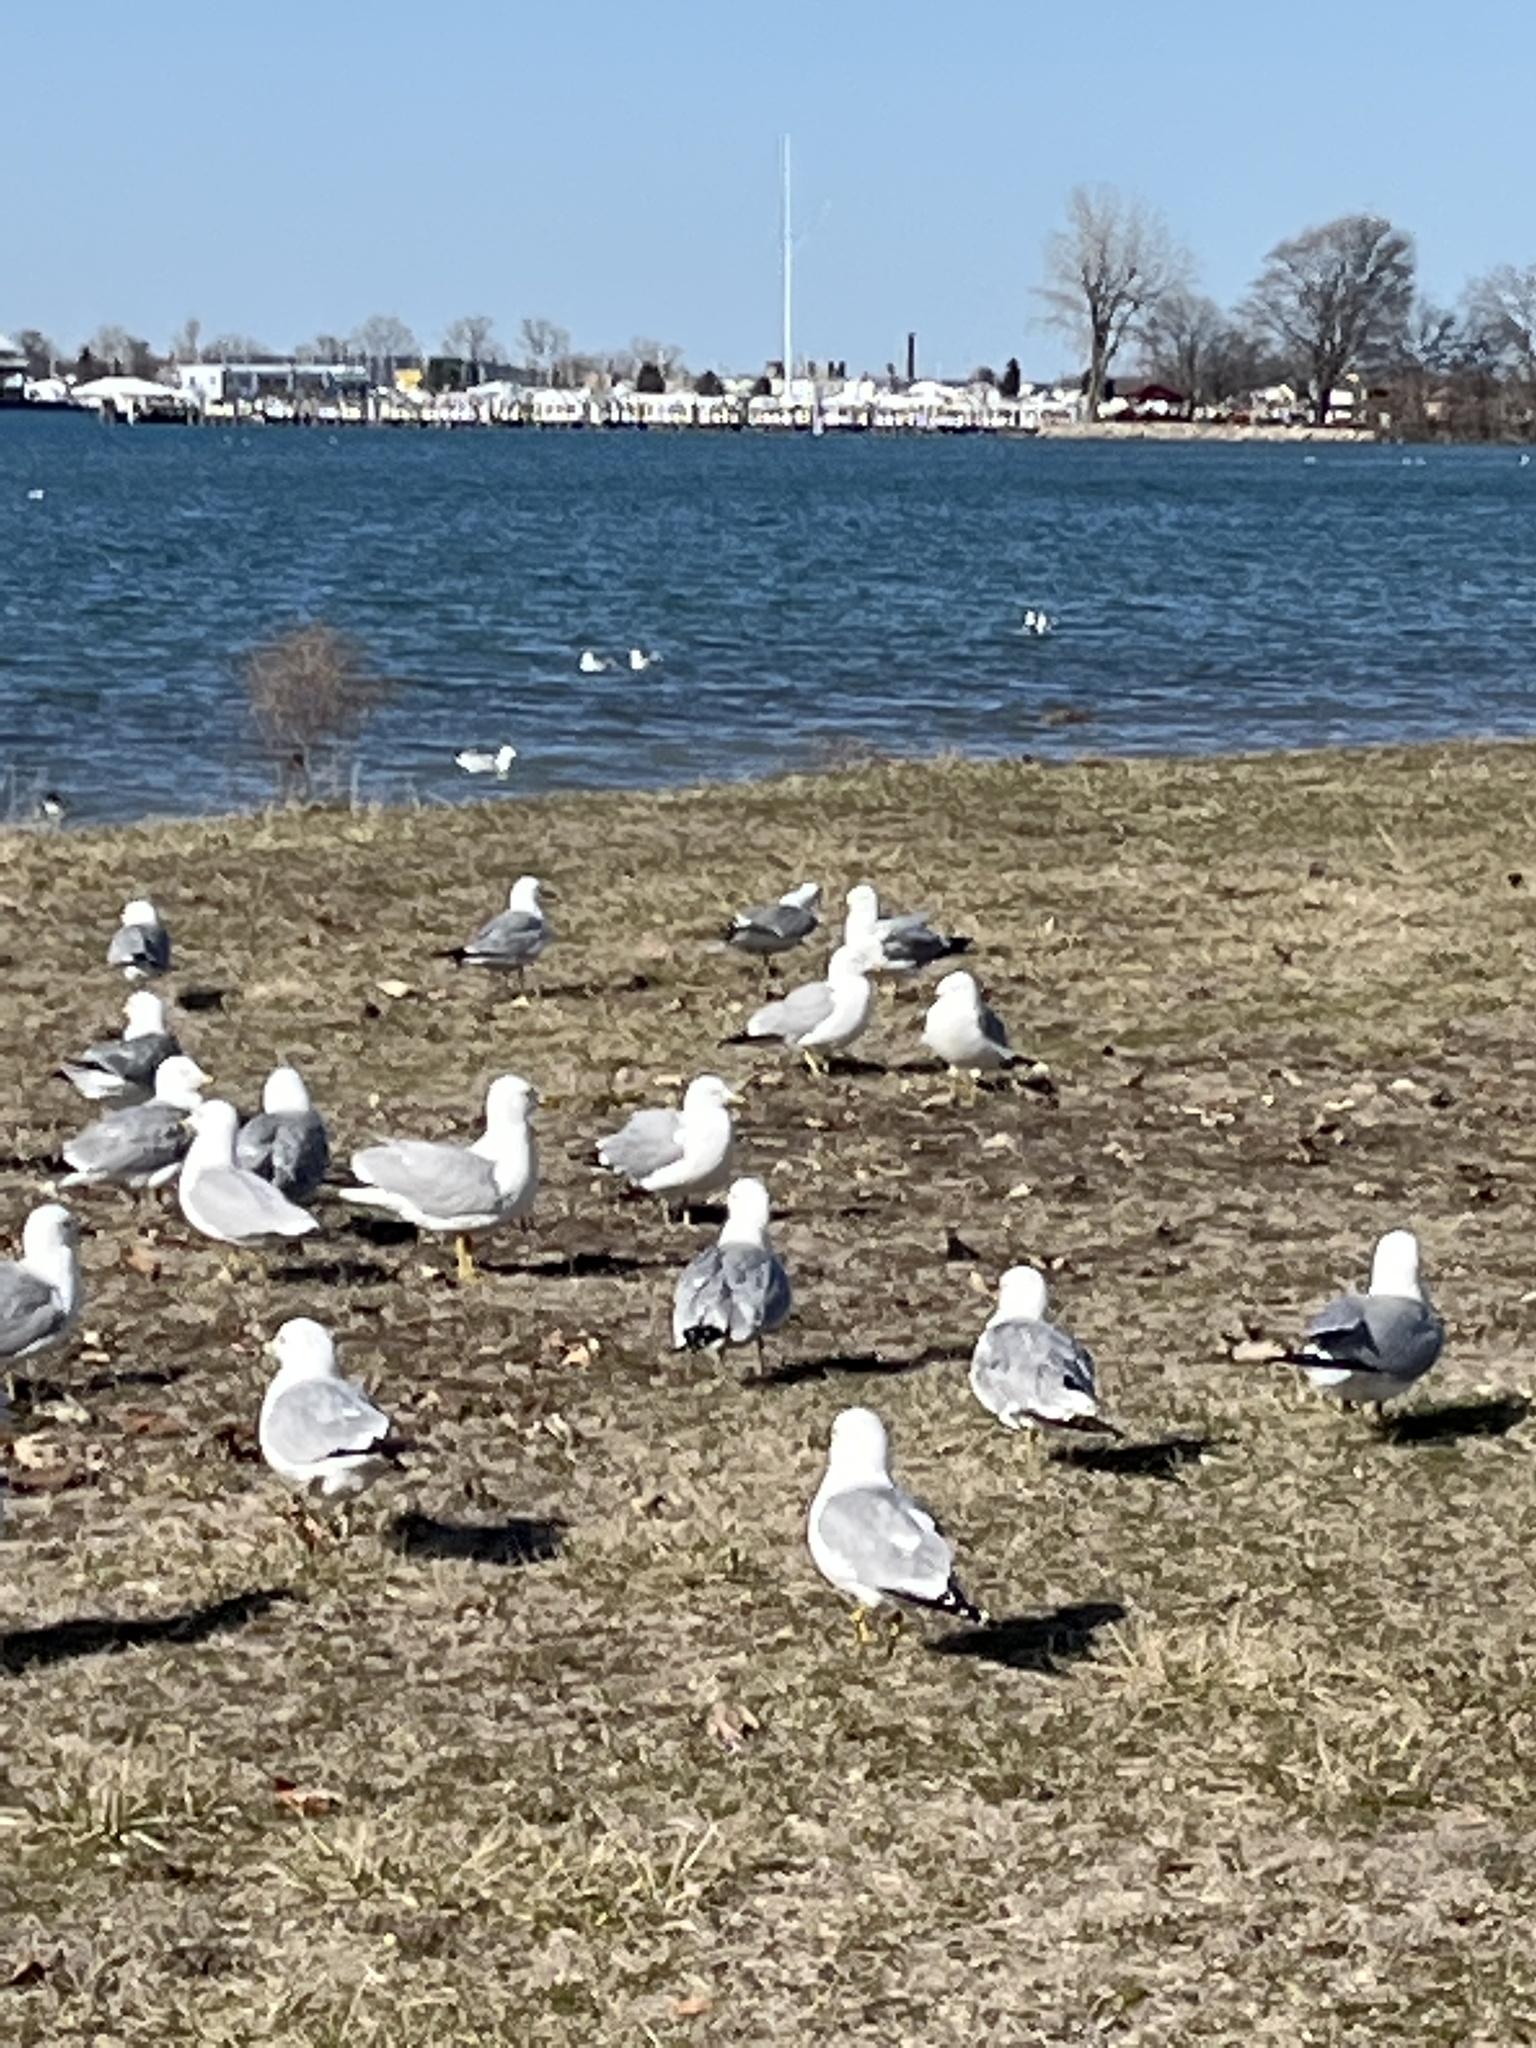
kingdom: Animalia
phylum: Chordata
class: Aves
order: Charadriiformes
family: Laridae
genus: Larus
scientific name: Larus argentatus
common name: Herring gull
